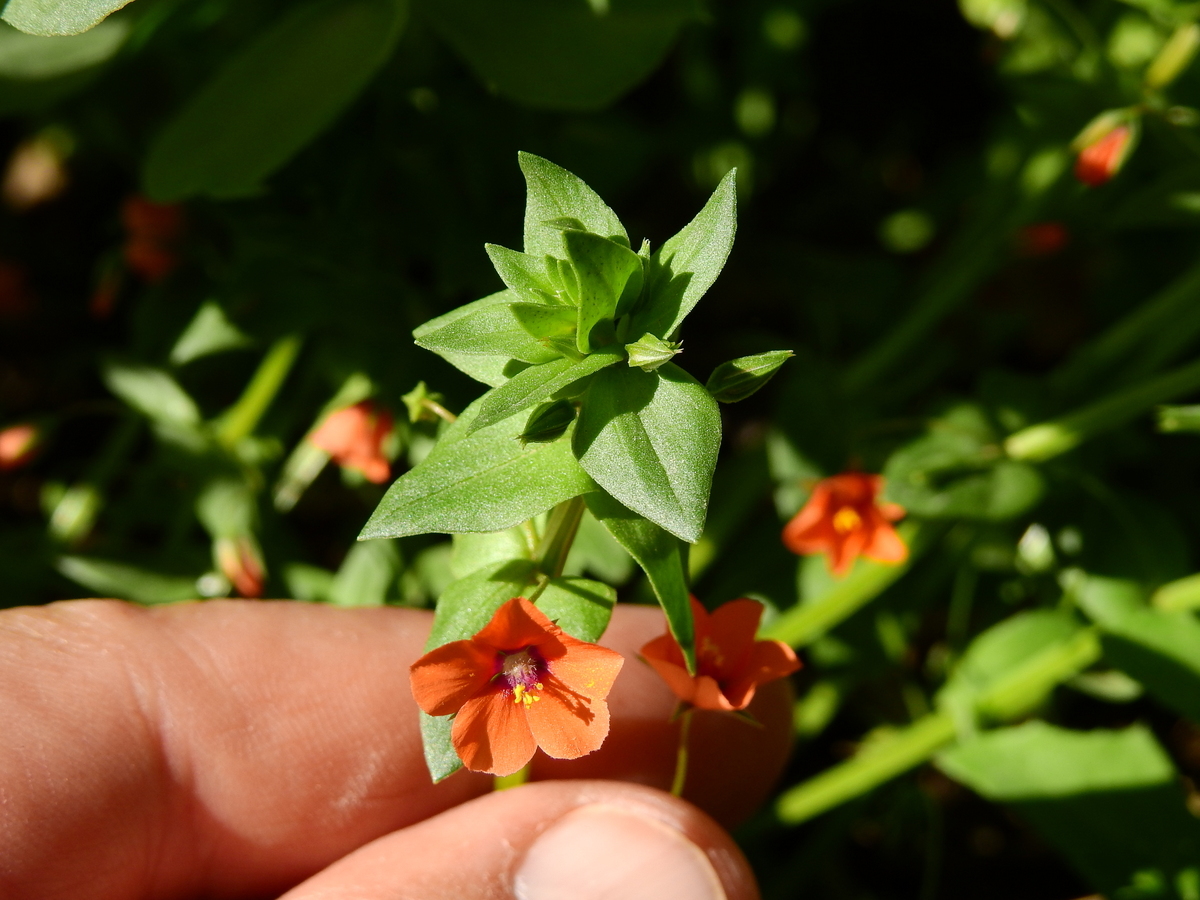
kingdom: Plantae
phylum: Tracheophyta
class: Magnoliopsida
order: Ericales
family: Primulaceae
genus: Lysimachia
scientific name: Lysimachia arvensis
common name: Scarlet pimpernel
